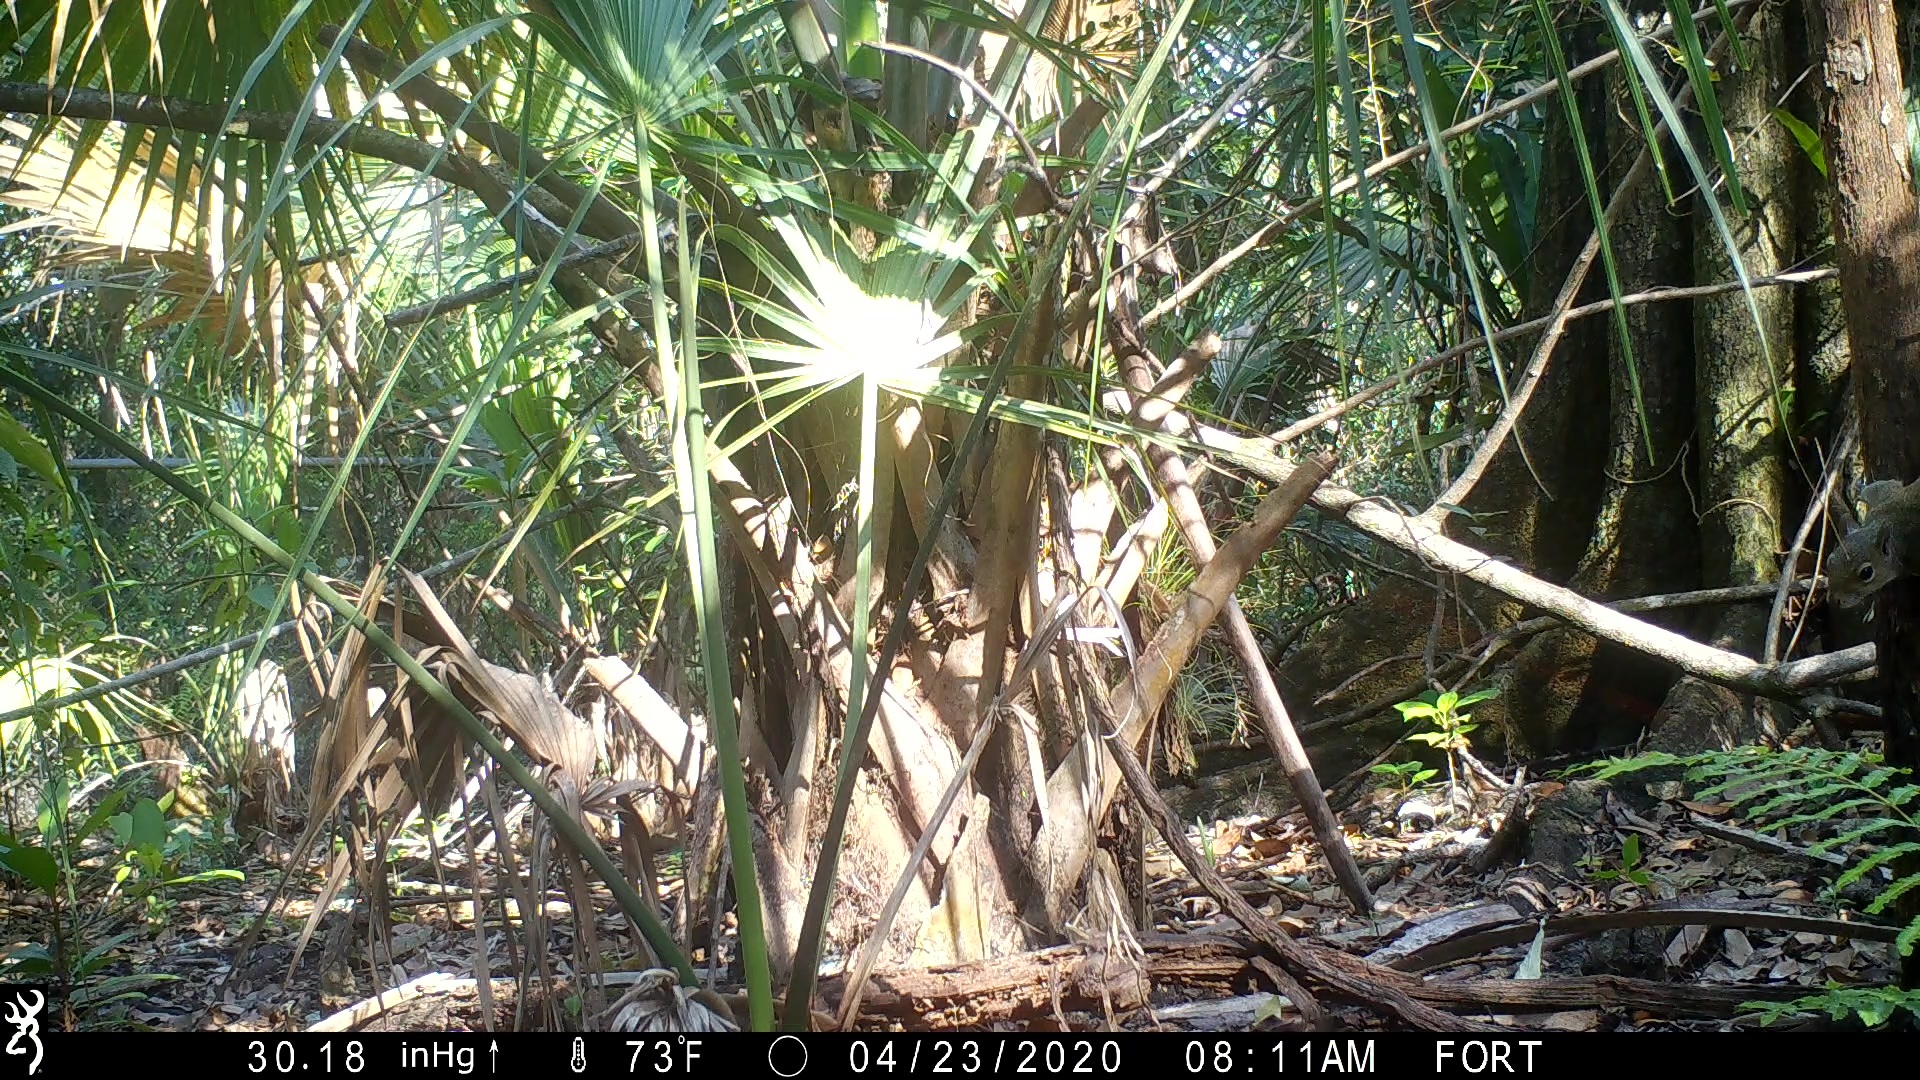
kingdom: Animalia
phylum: Chordata
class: Mammalia
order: Rodentia
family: Sciuridae
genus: Sciurus
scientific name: Sciurus carolinensis
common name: Eastern gray squirrel
